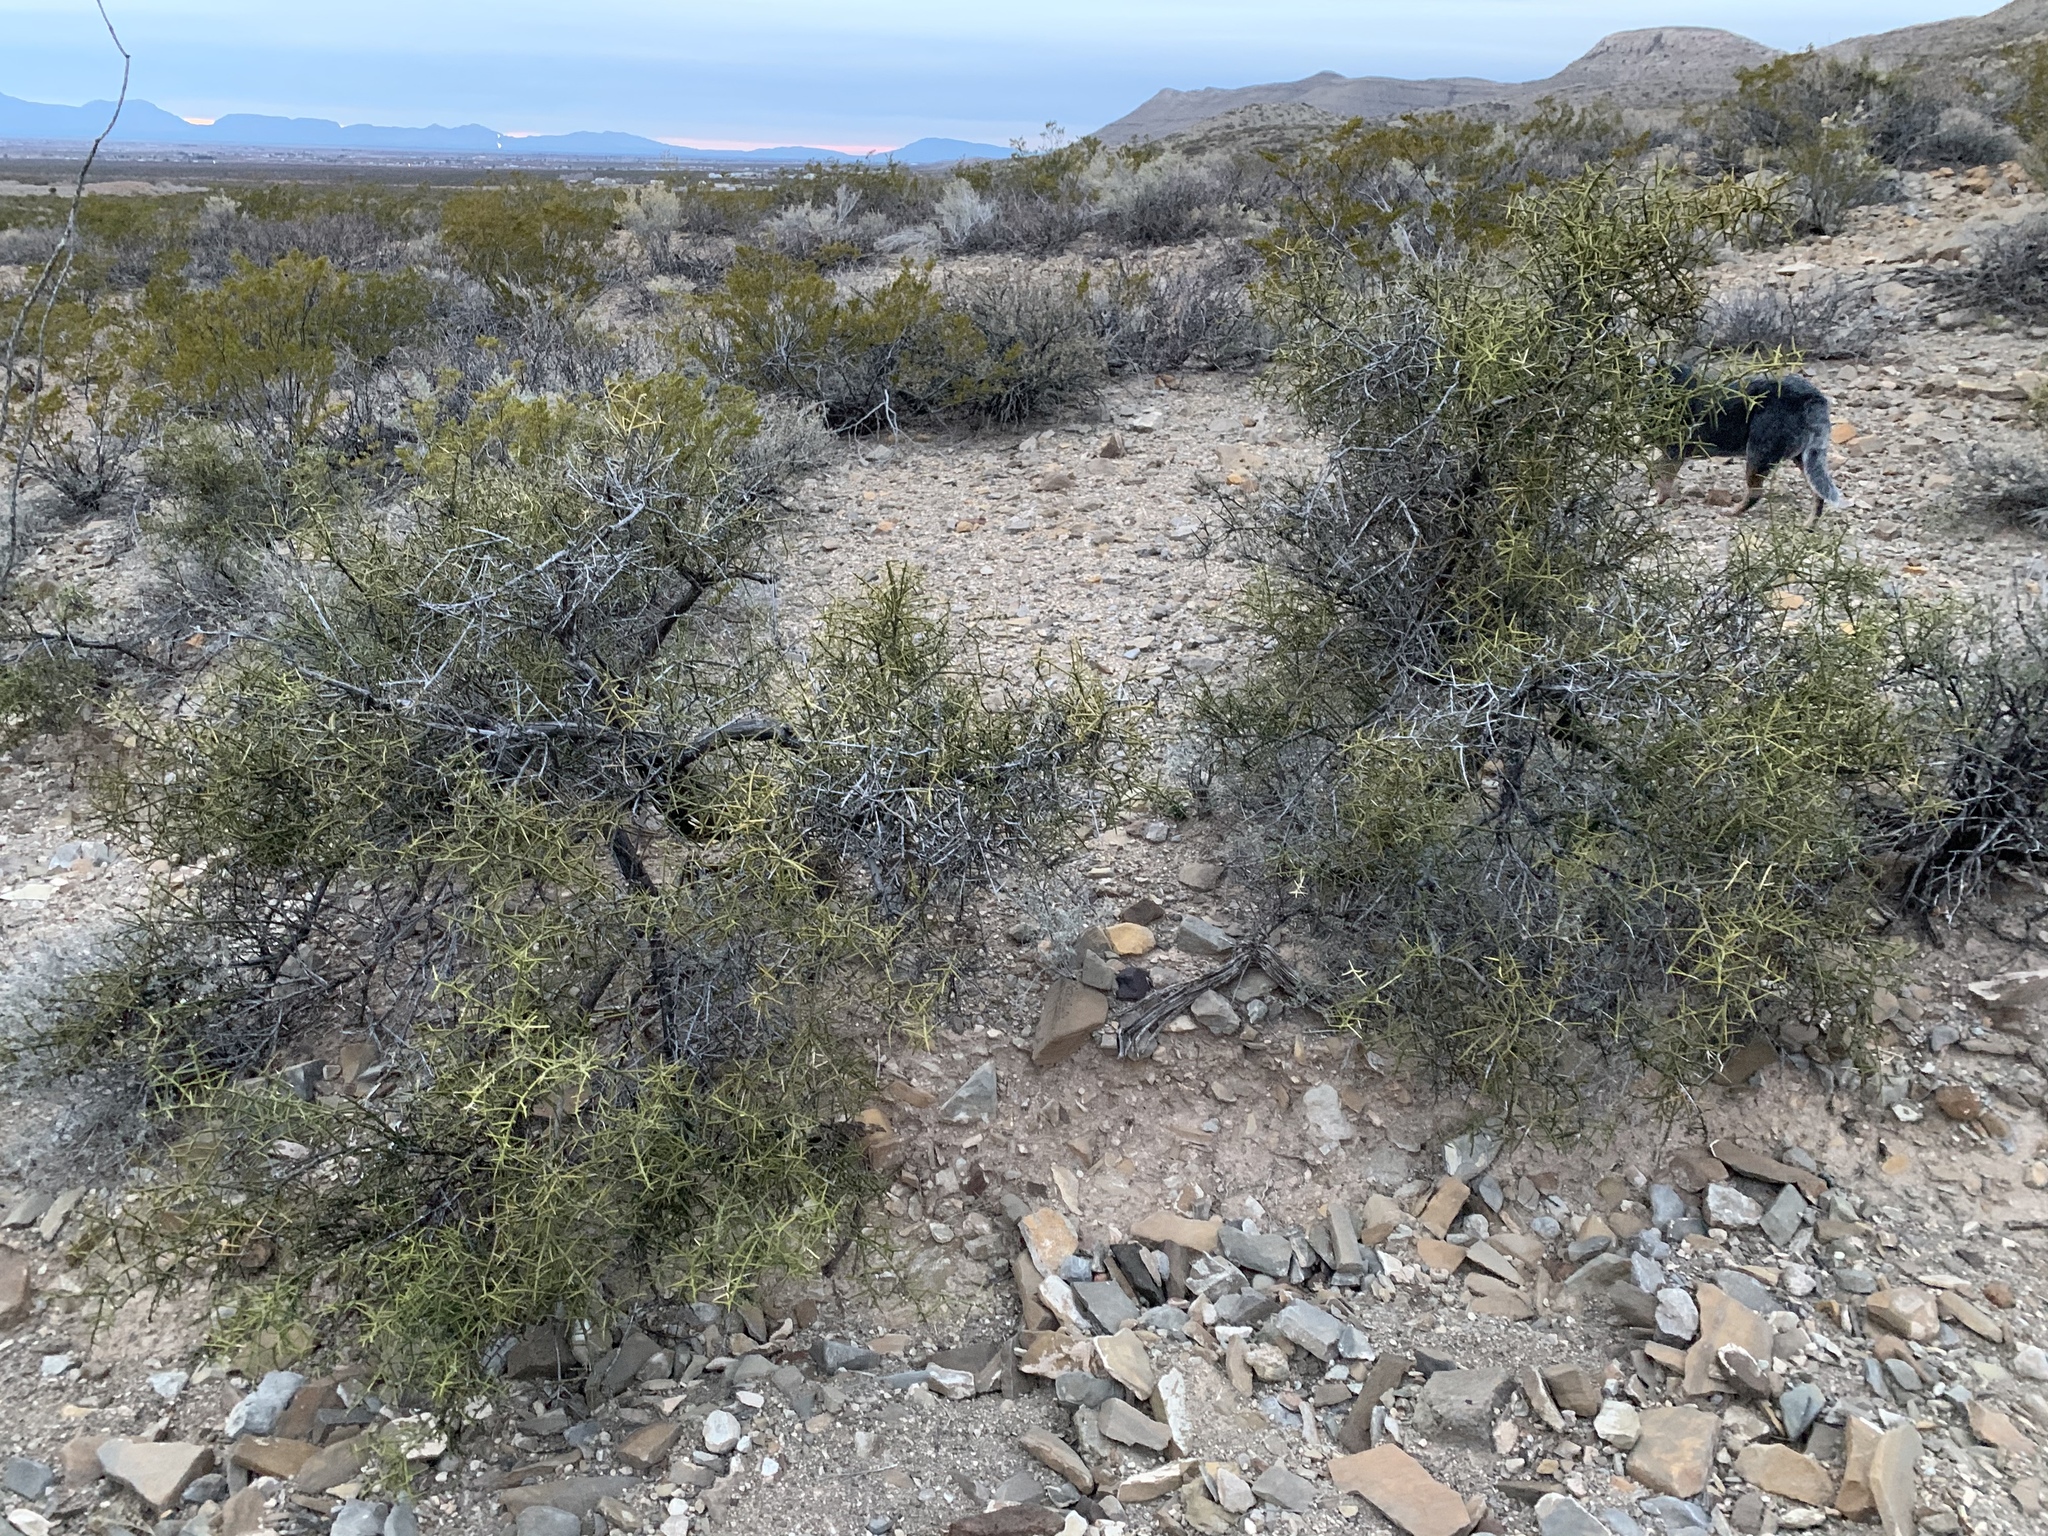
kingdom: Plantae
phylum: Tracheophyta
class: Magnoliopsida
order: Brassicales
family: Koeberliniaceae
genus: Koeberlinia
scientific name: Koeberlinia spinosa
